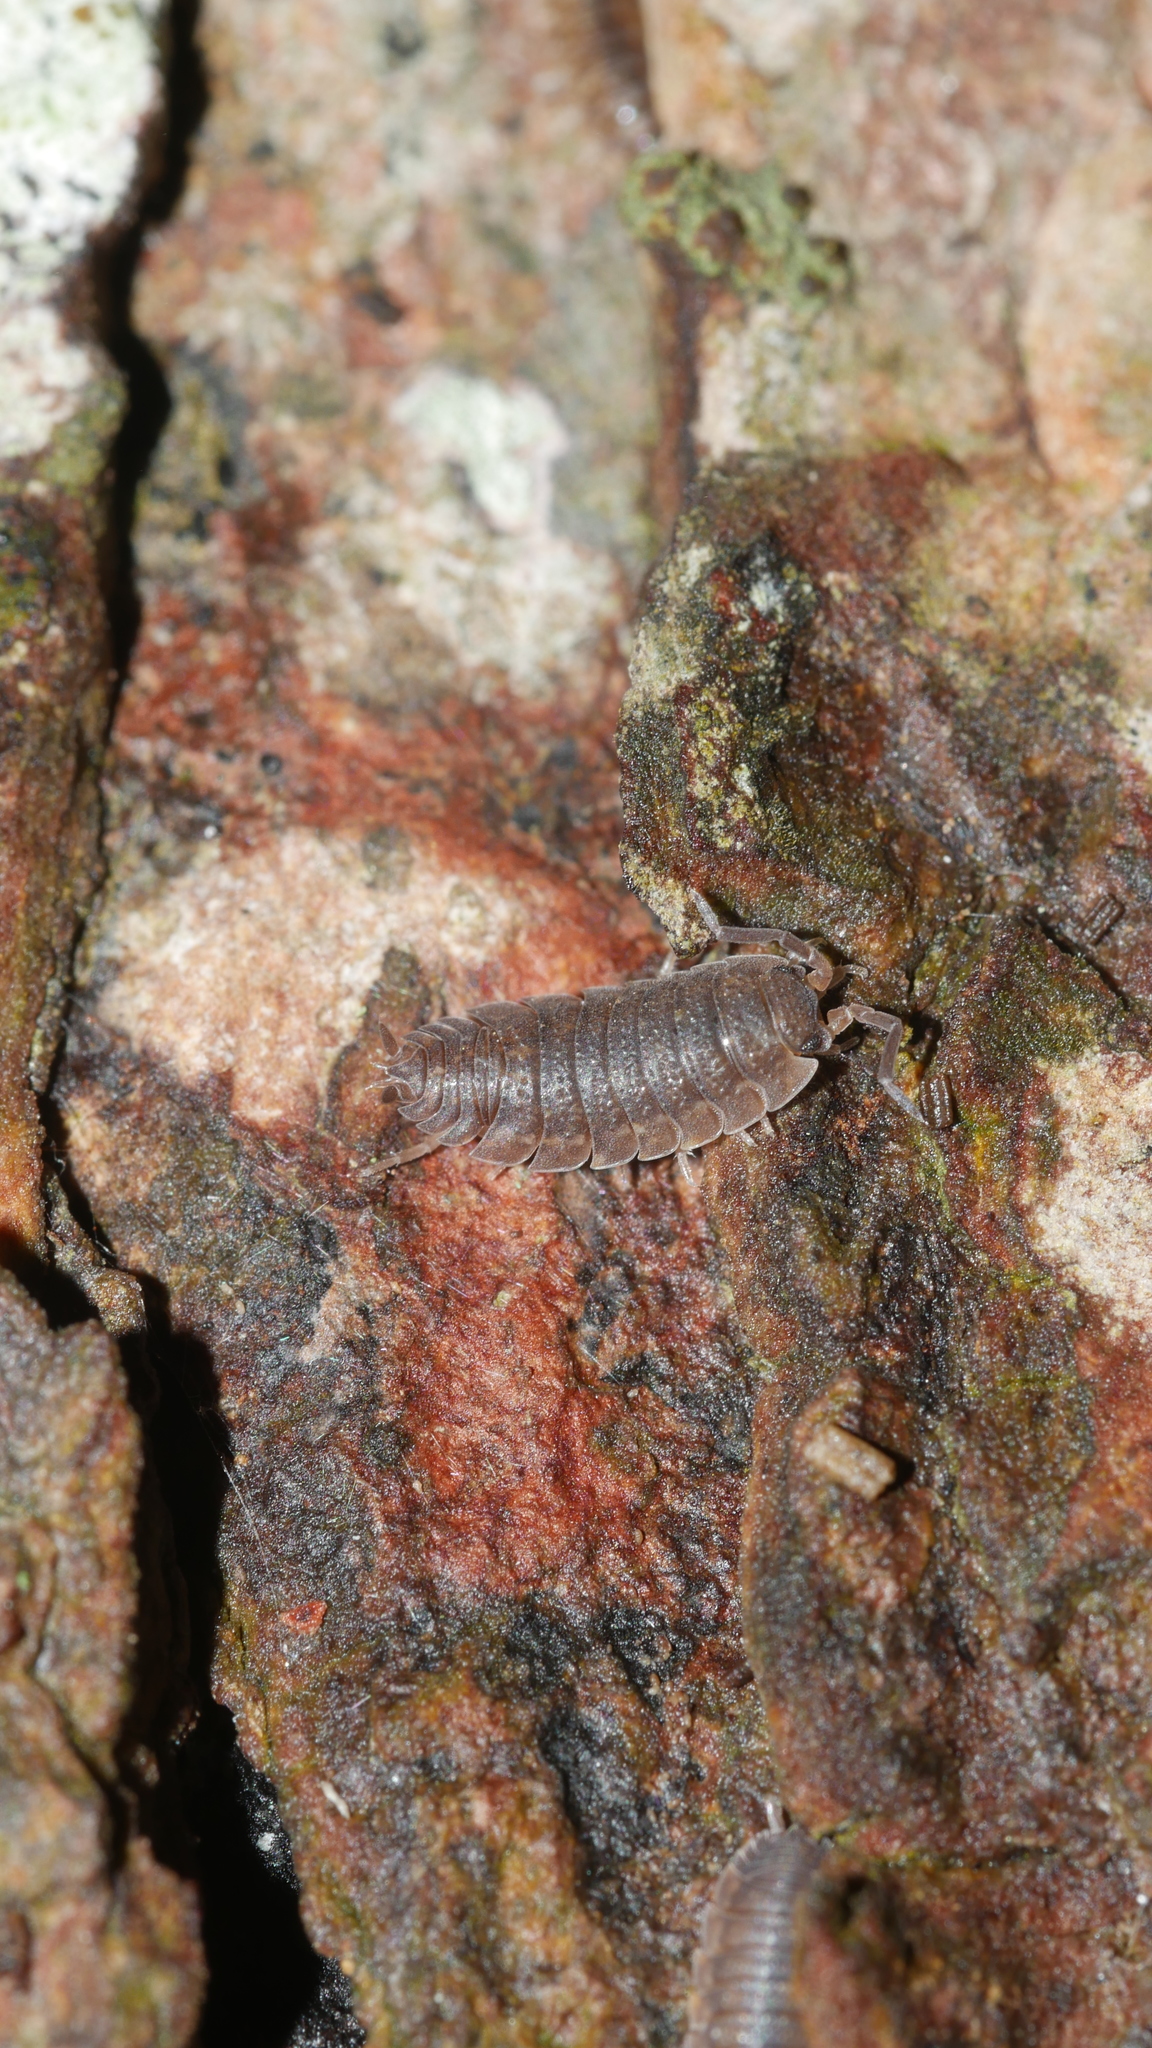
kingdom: Animalia
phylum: Arthropoda
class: Malacostraca
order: Isopoda
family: Porcellionidae
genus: Porcellio
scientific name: Porcellio scaber
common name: Common rough woodlouse
